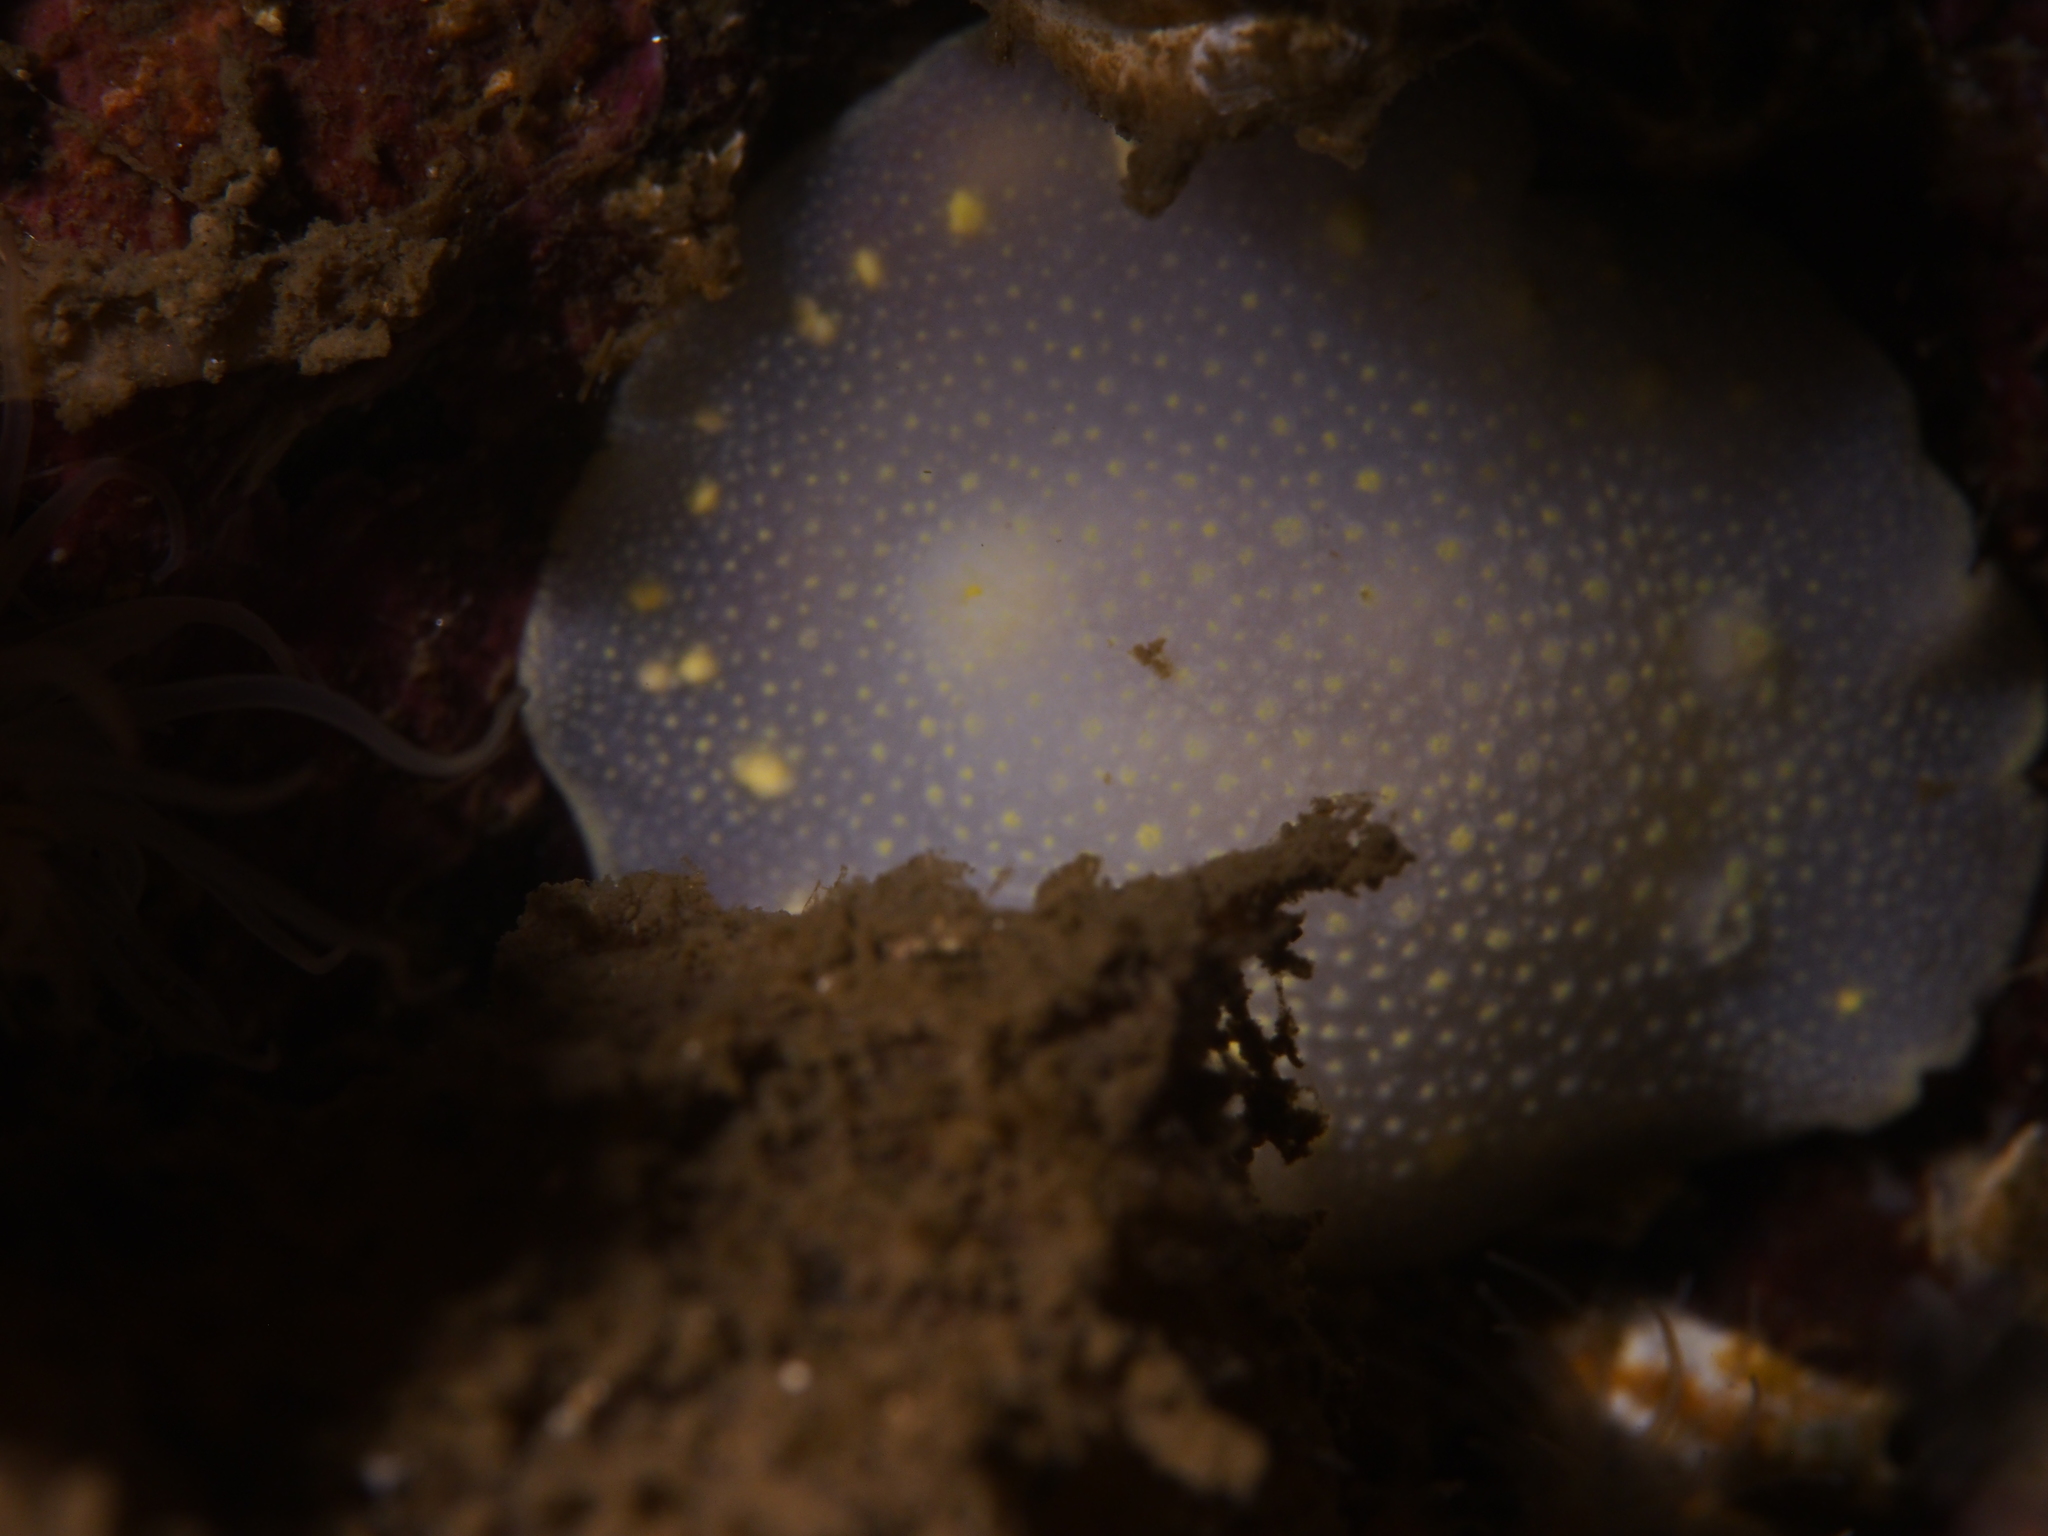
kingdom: Animalia
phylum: Mollusca
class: Gastropoda
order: Nudibranchia
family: Cadlinidae
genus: Cadlina
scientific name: Cadlina laevis
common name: White atlantic cadlina
